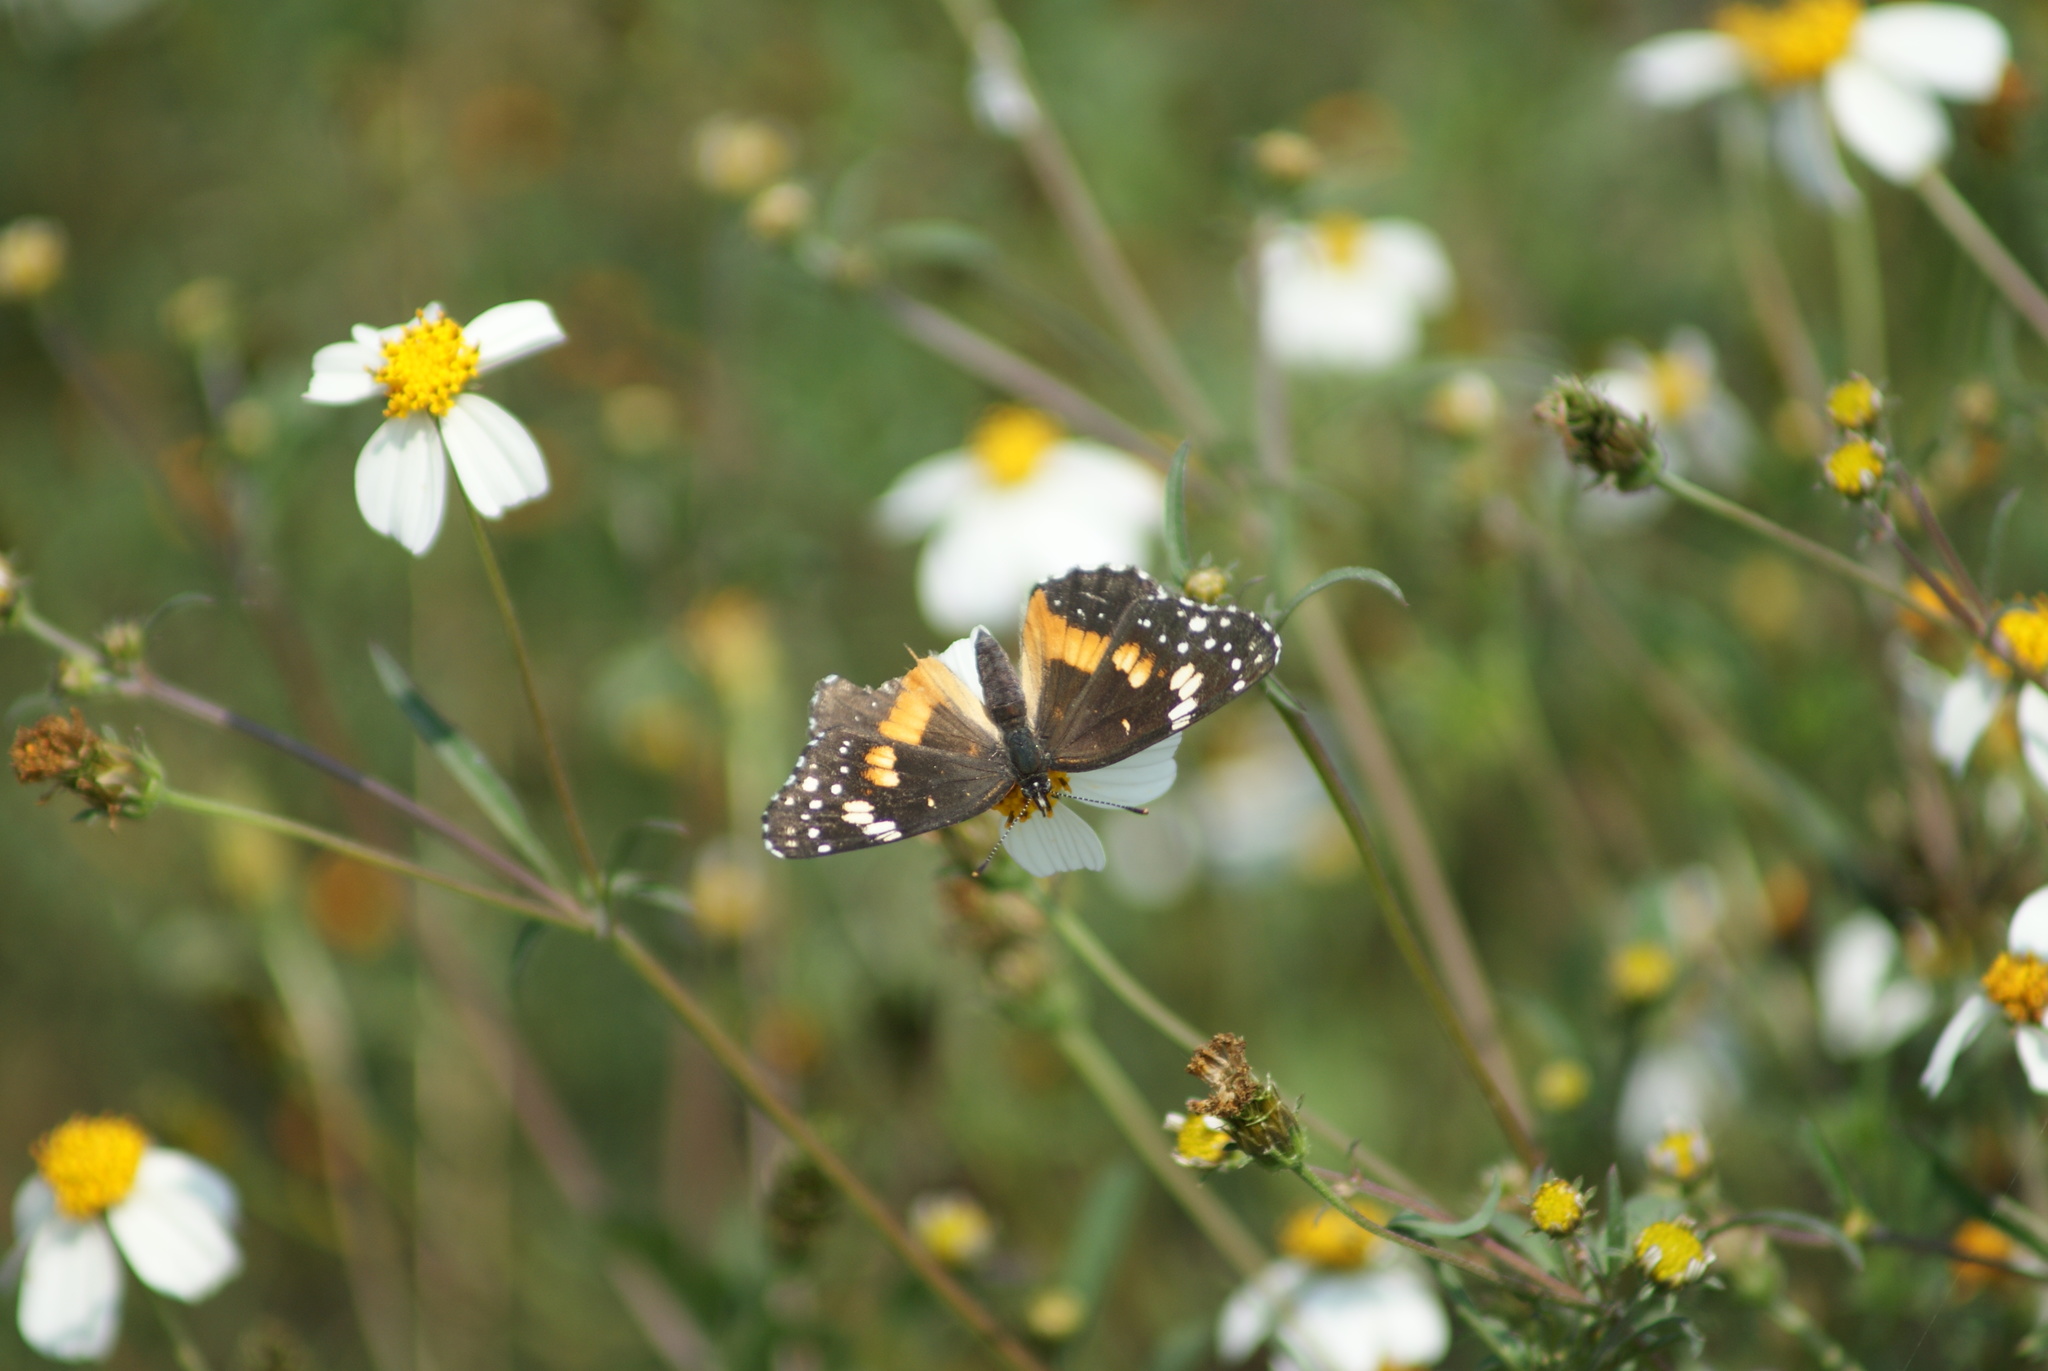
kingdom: Animalia
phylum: Arthropoda
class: Insecta
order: Lepidoptera
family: Nymphalidae
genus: Chlosyne
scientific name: Chlosyne lacinia
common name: Bordered patch
